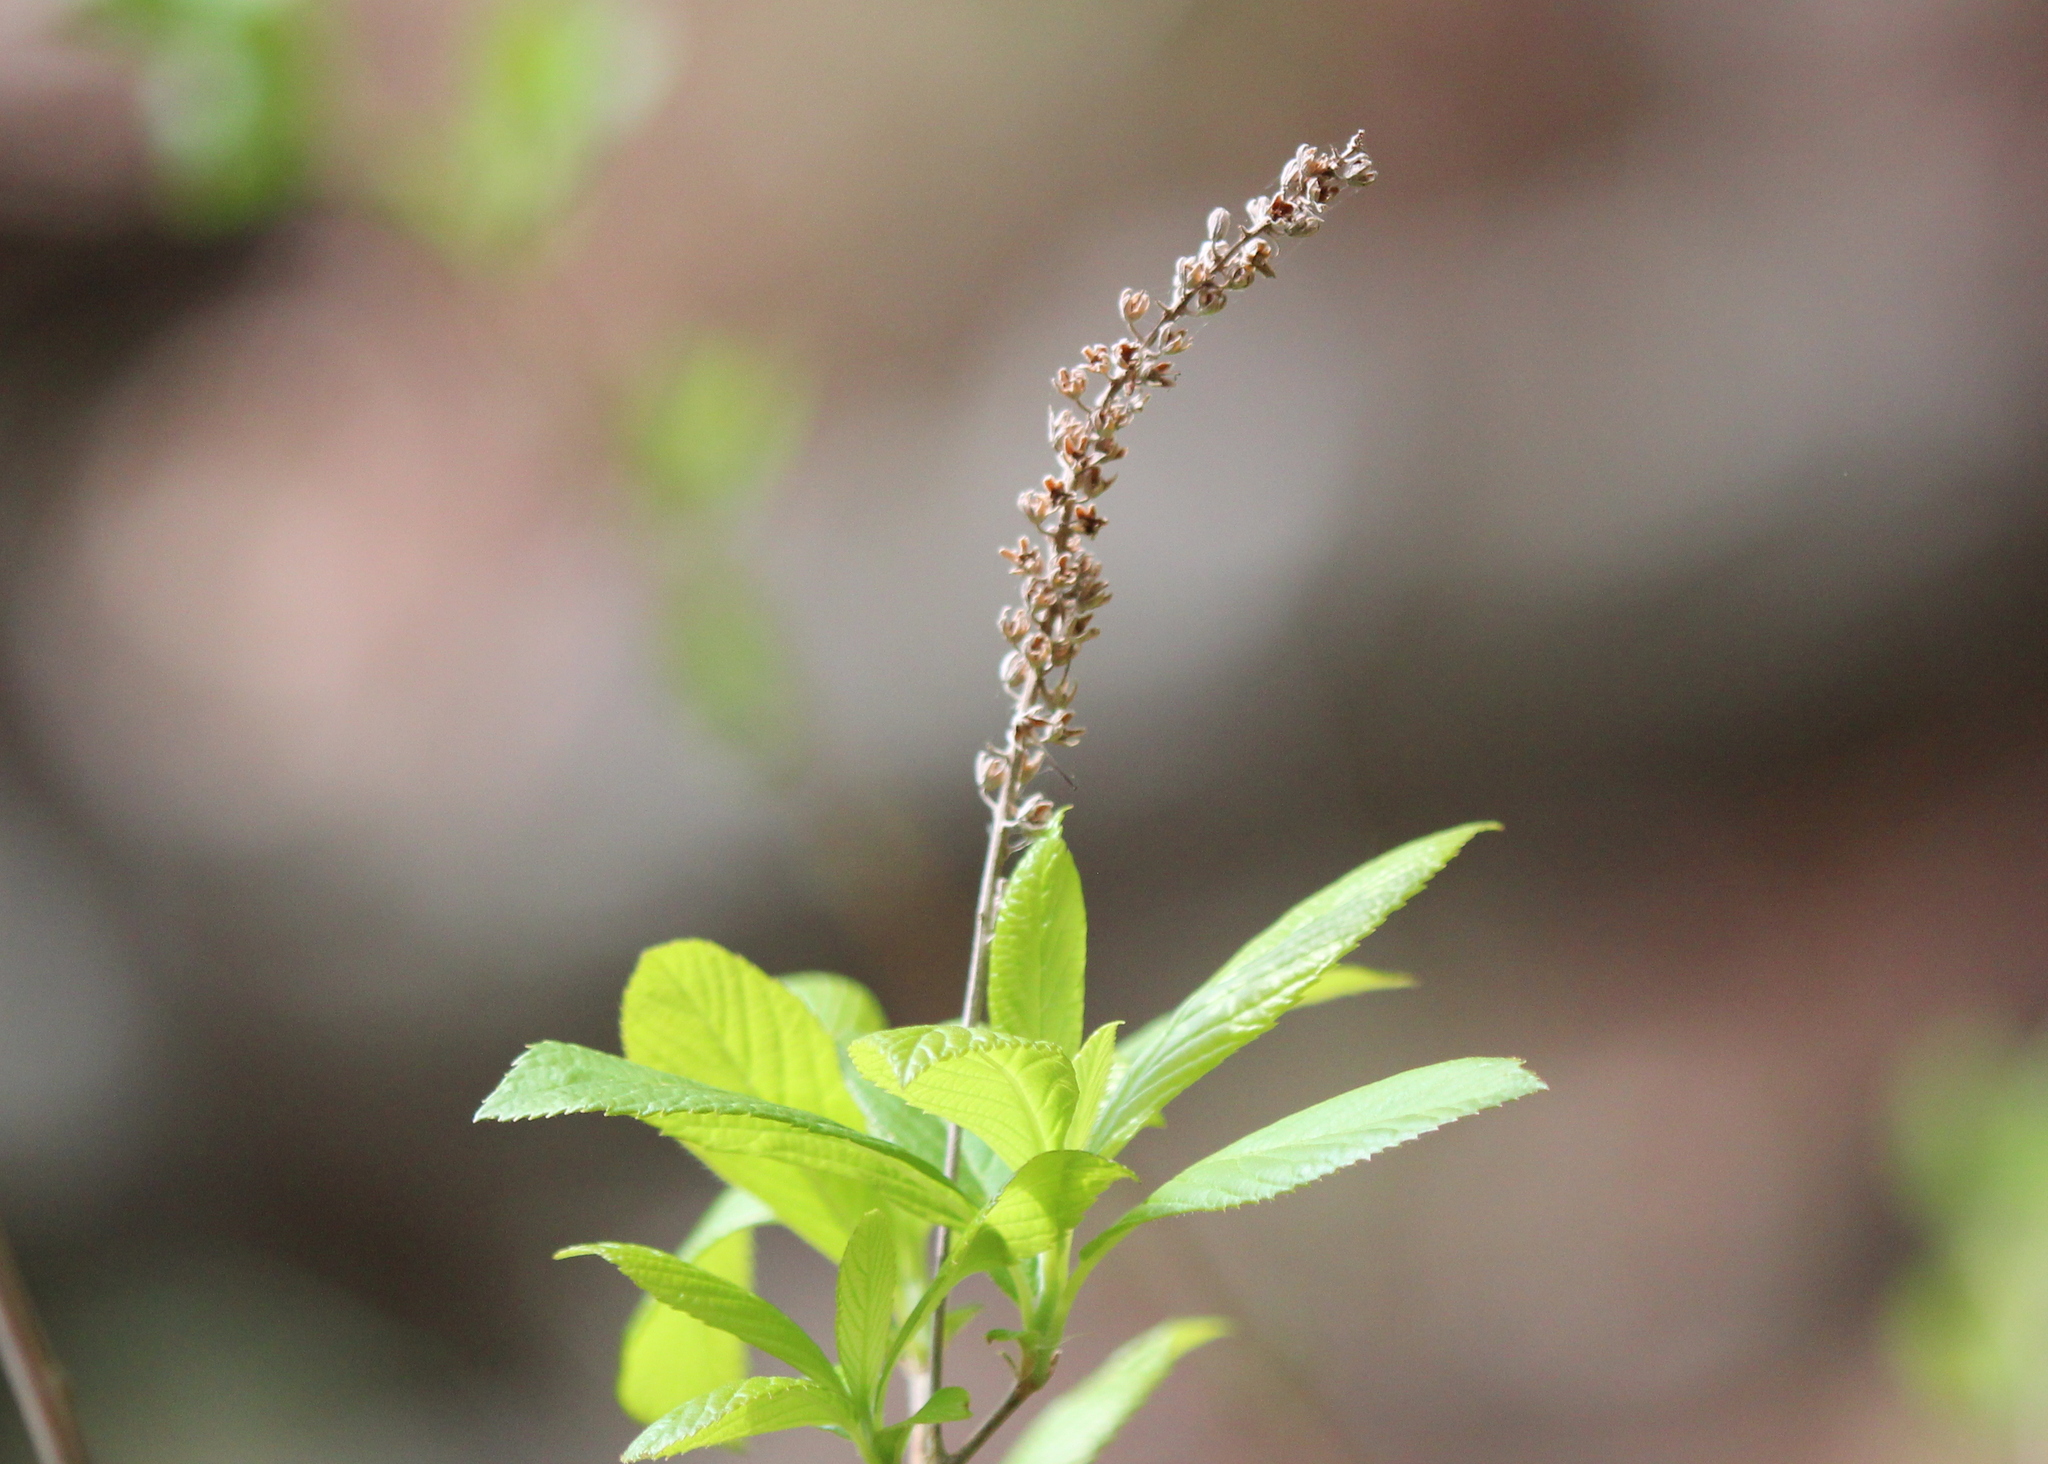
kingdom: Plantae
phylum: Tracheophyta
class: Magnoliopsida
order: Ericales
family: Clethraceae
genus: Clethra
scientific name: Clethra alnifolia
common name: Sweet pepperbush
